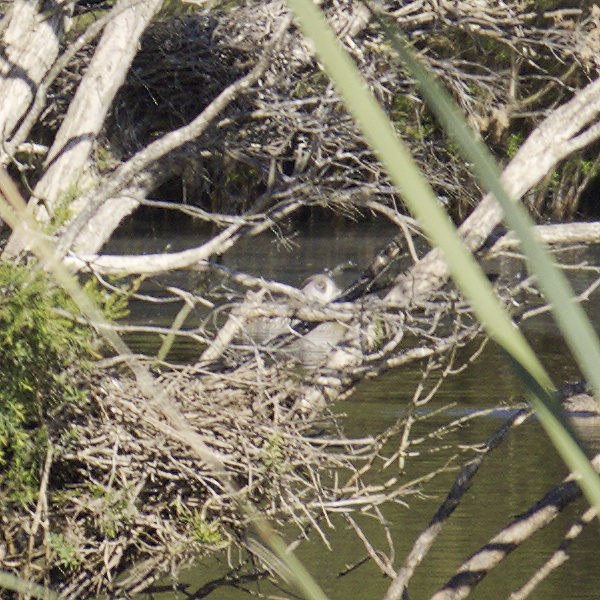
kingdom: Animalia
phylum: Chordata
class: Aves
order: Anseriformes
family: Anatidae
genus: Malacorhynchus
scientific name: Malacorhynchus membranaceus
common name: Pink-eared duck
